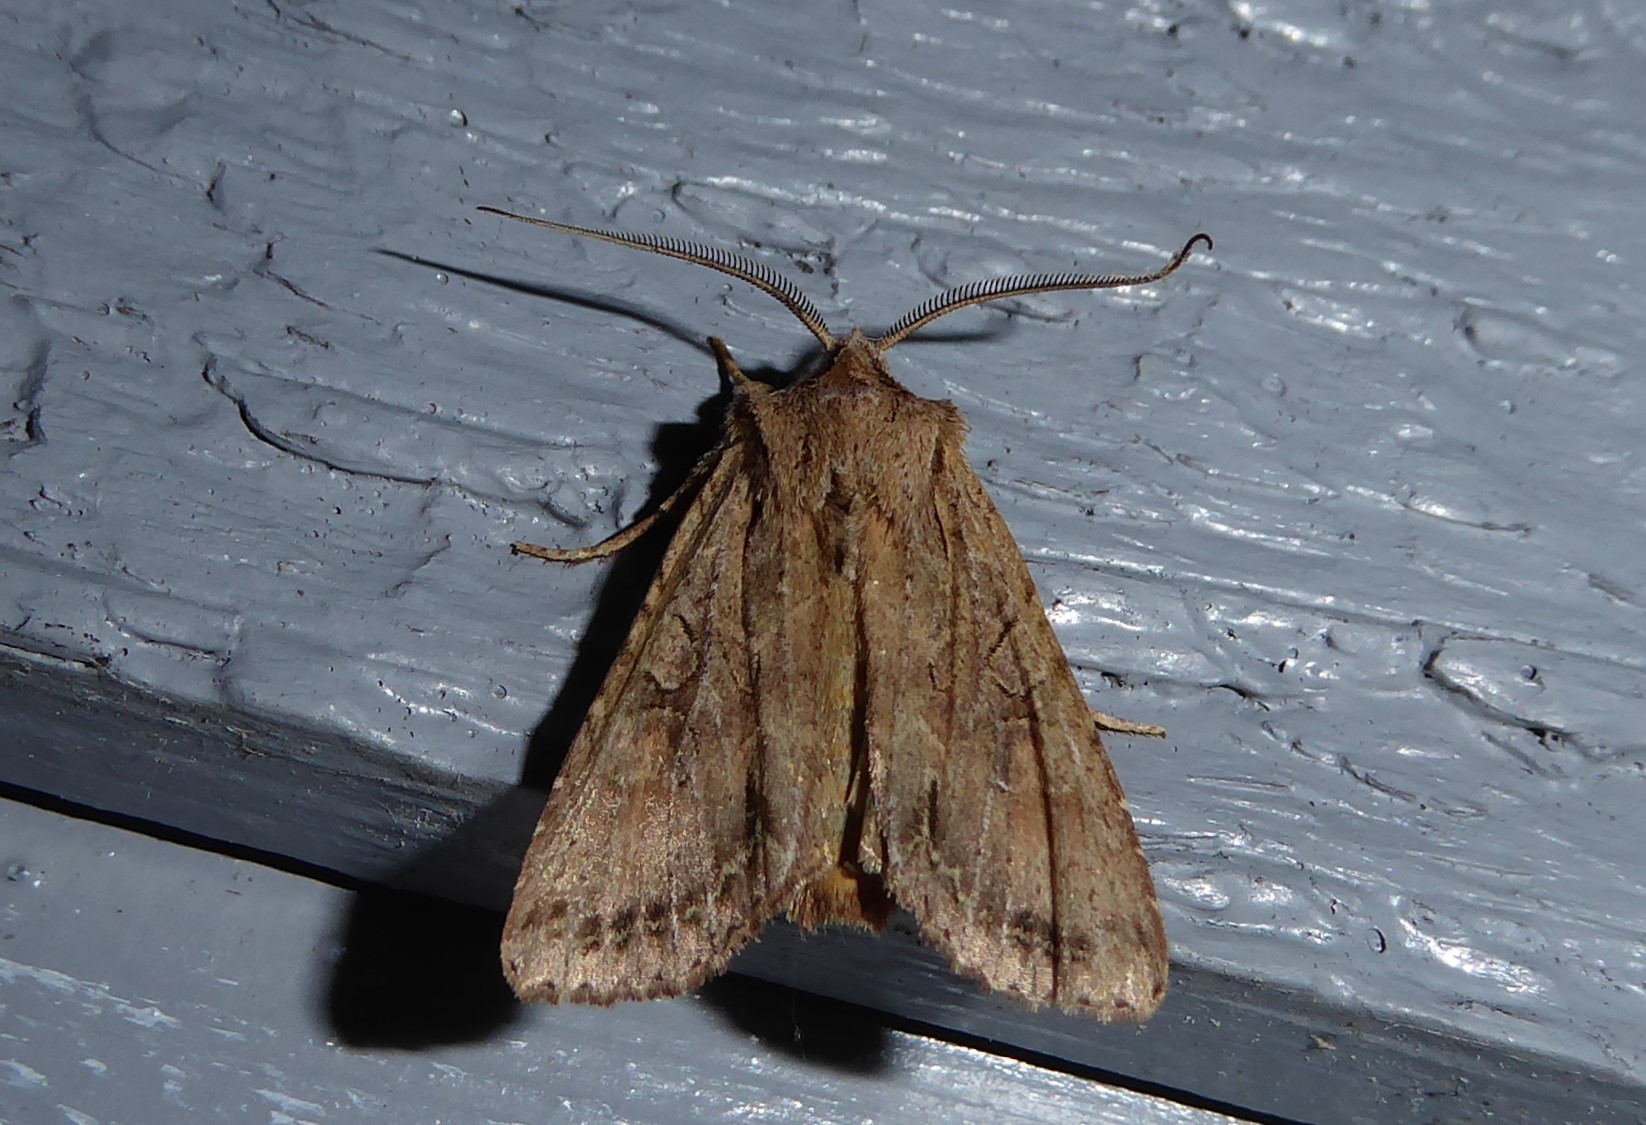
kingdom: Animalia
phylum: Arthropoda
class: Insecta
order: Lepidoptera
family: Noctuidae
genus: Ichneutica
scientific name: Ichneutica
